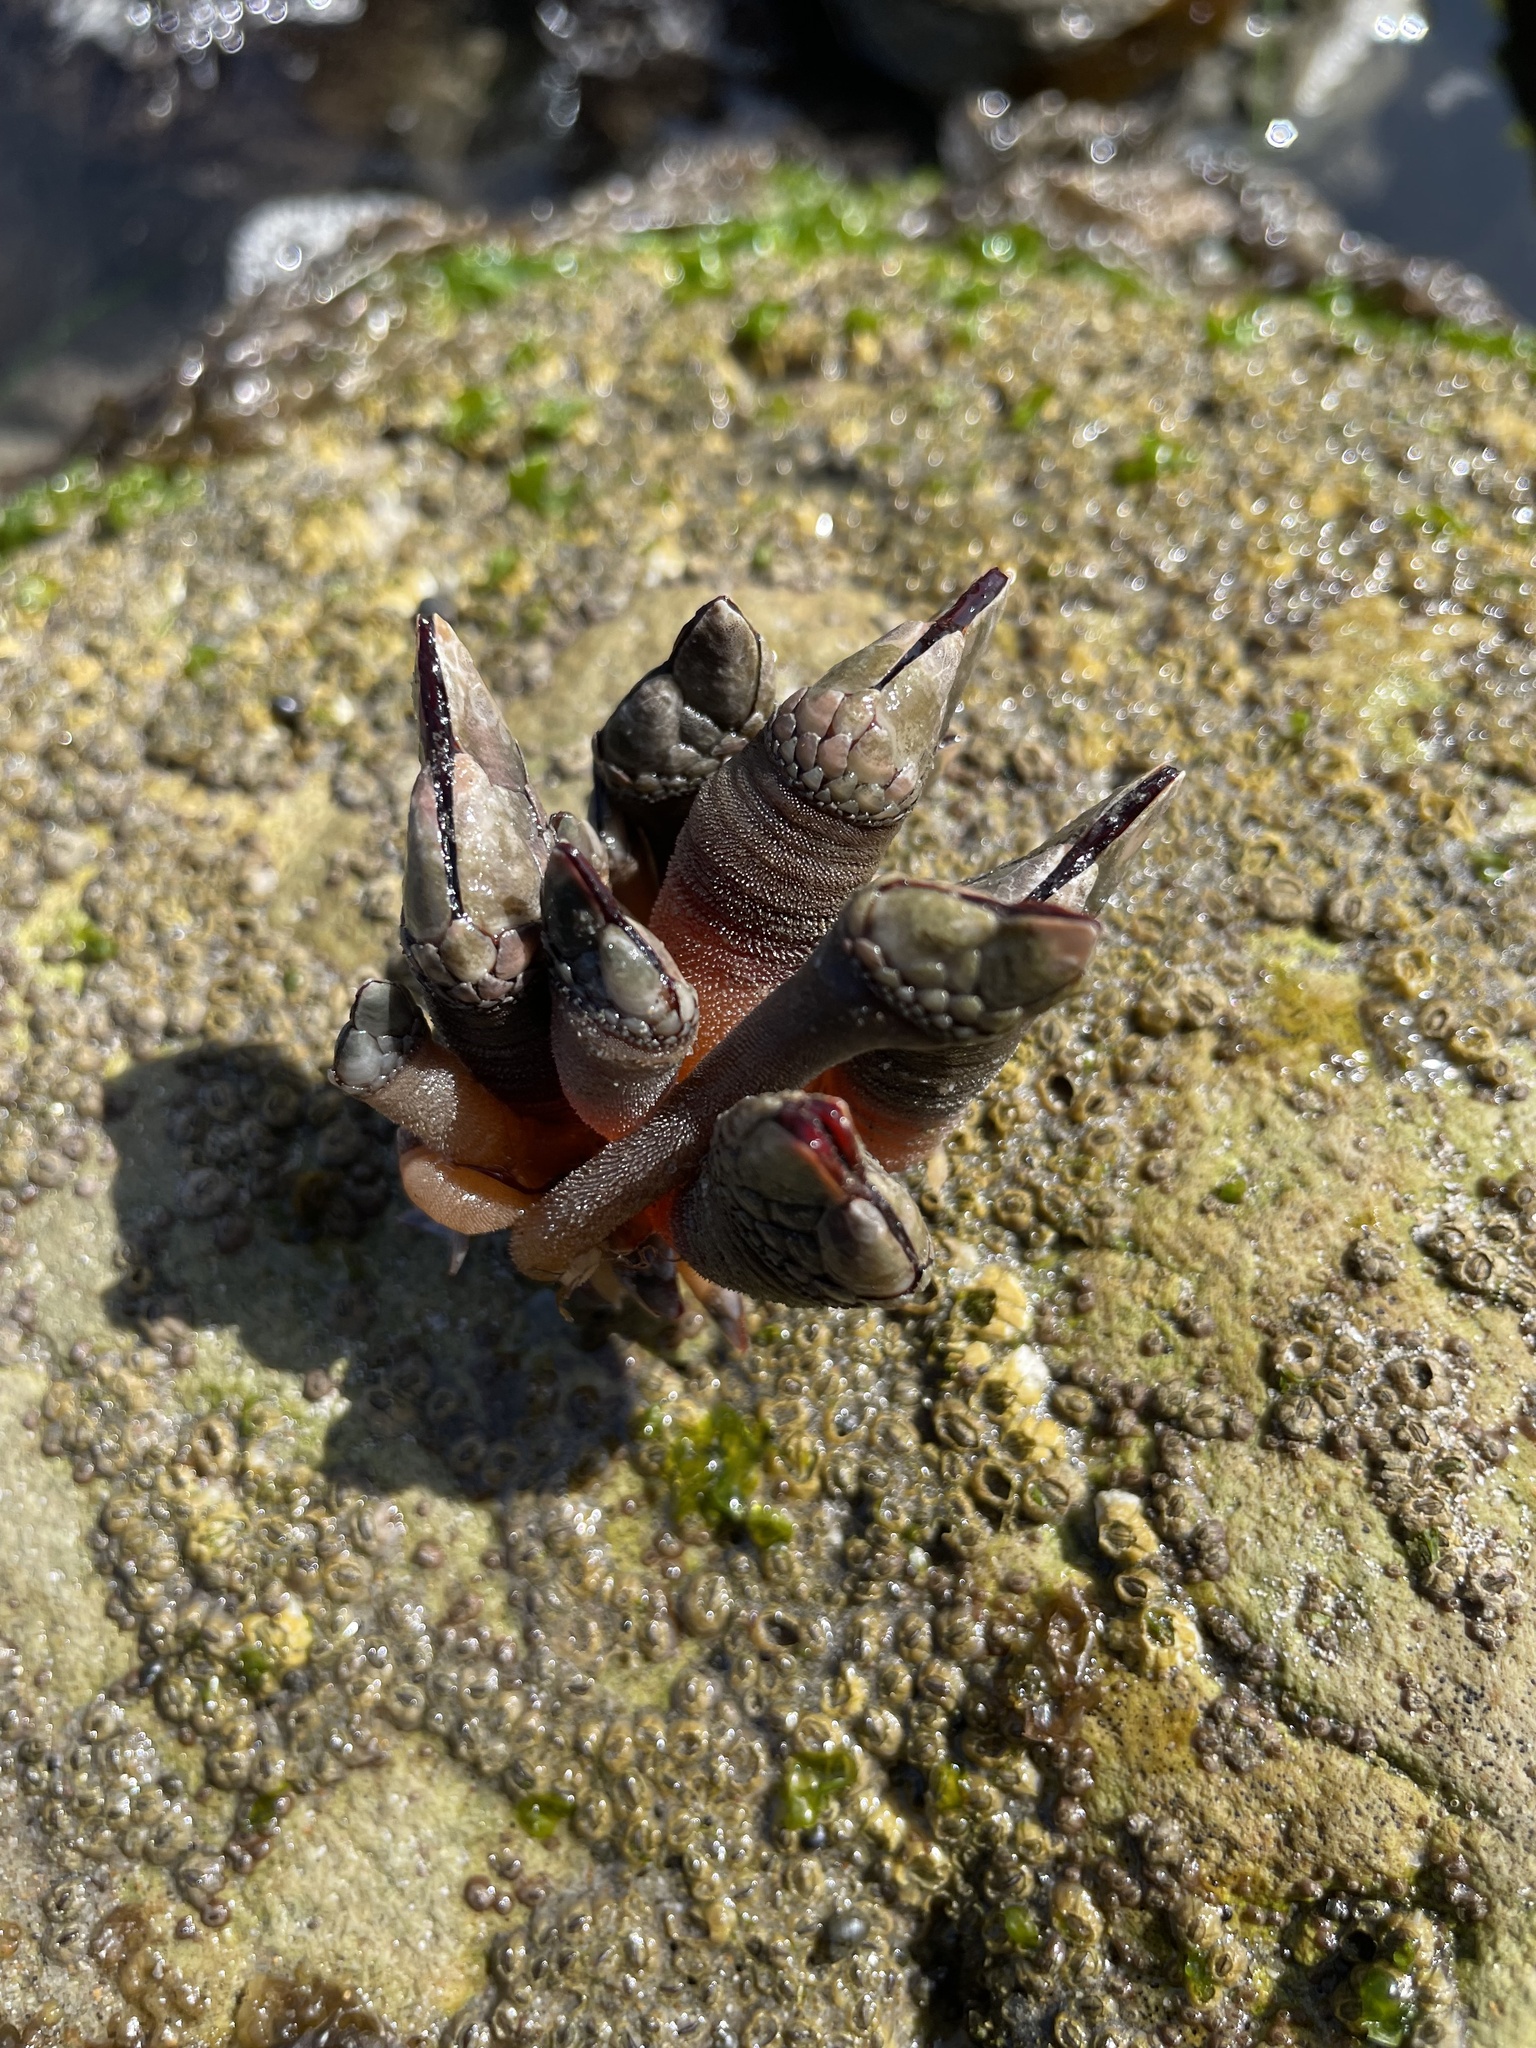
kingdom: Animalia
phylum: Arthropoda
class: Maxillopoda
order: Pedunculata
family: Pollicipedidae
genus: Pollicipes
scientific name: Pollicipes polymerus
